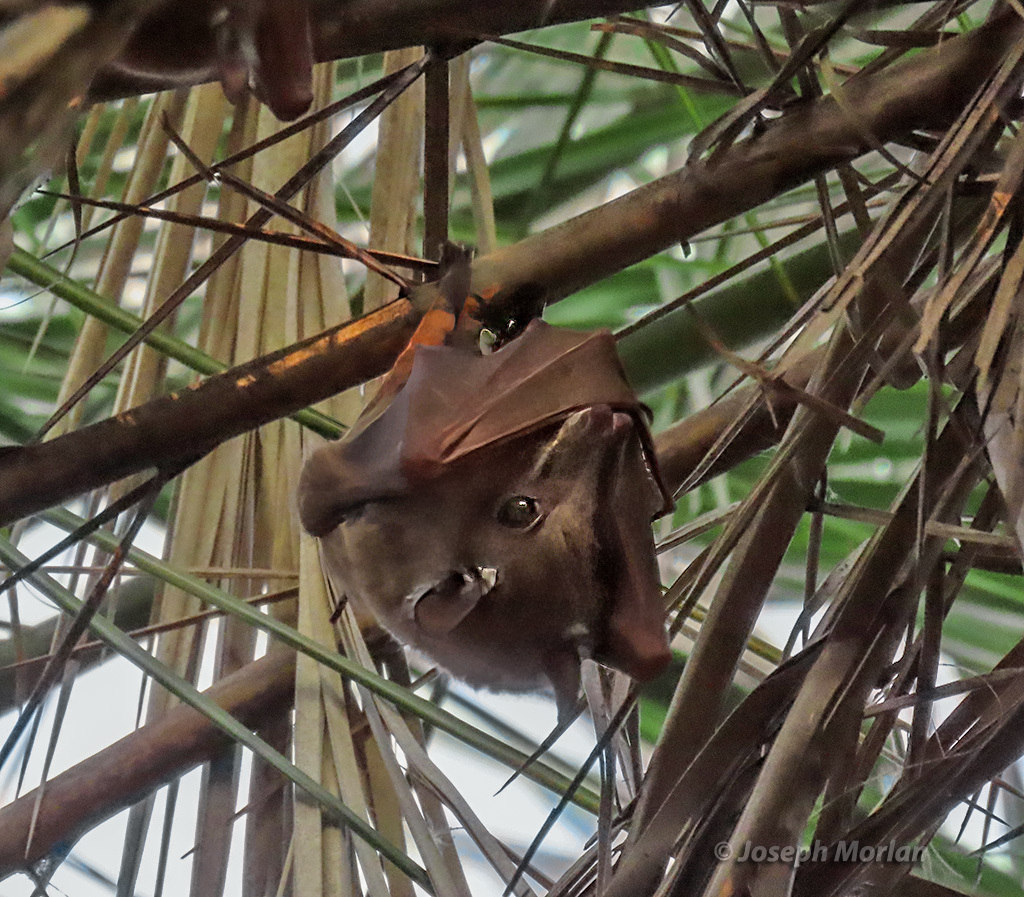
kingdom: Animalia
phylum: Chordata
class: Mammalia
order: Chiroptera
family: Pteropodidae
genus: Epomophorus
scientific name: Epomophorus crypturus
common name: Smaller epauletted fruit bat
